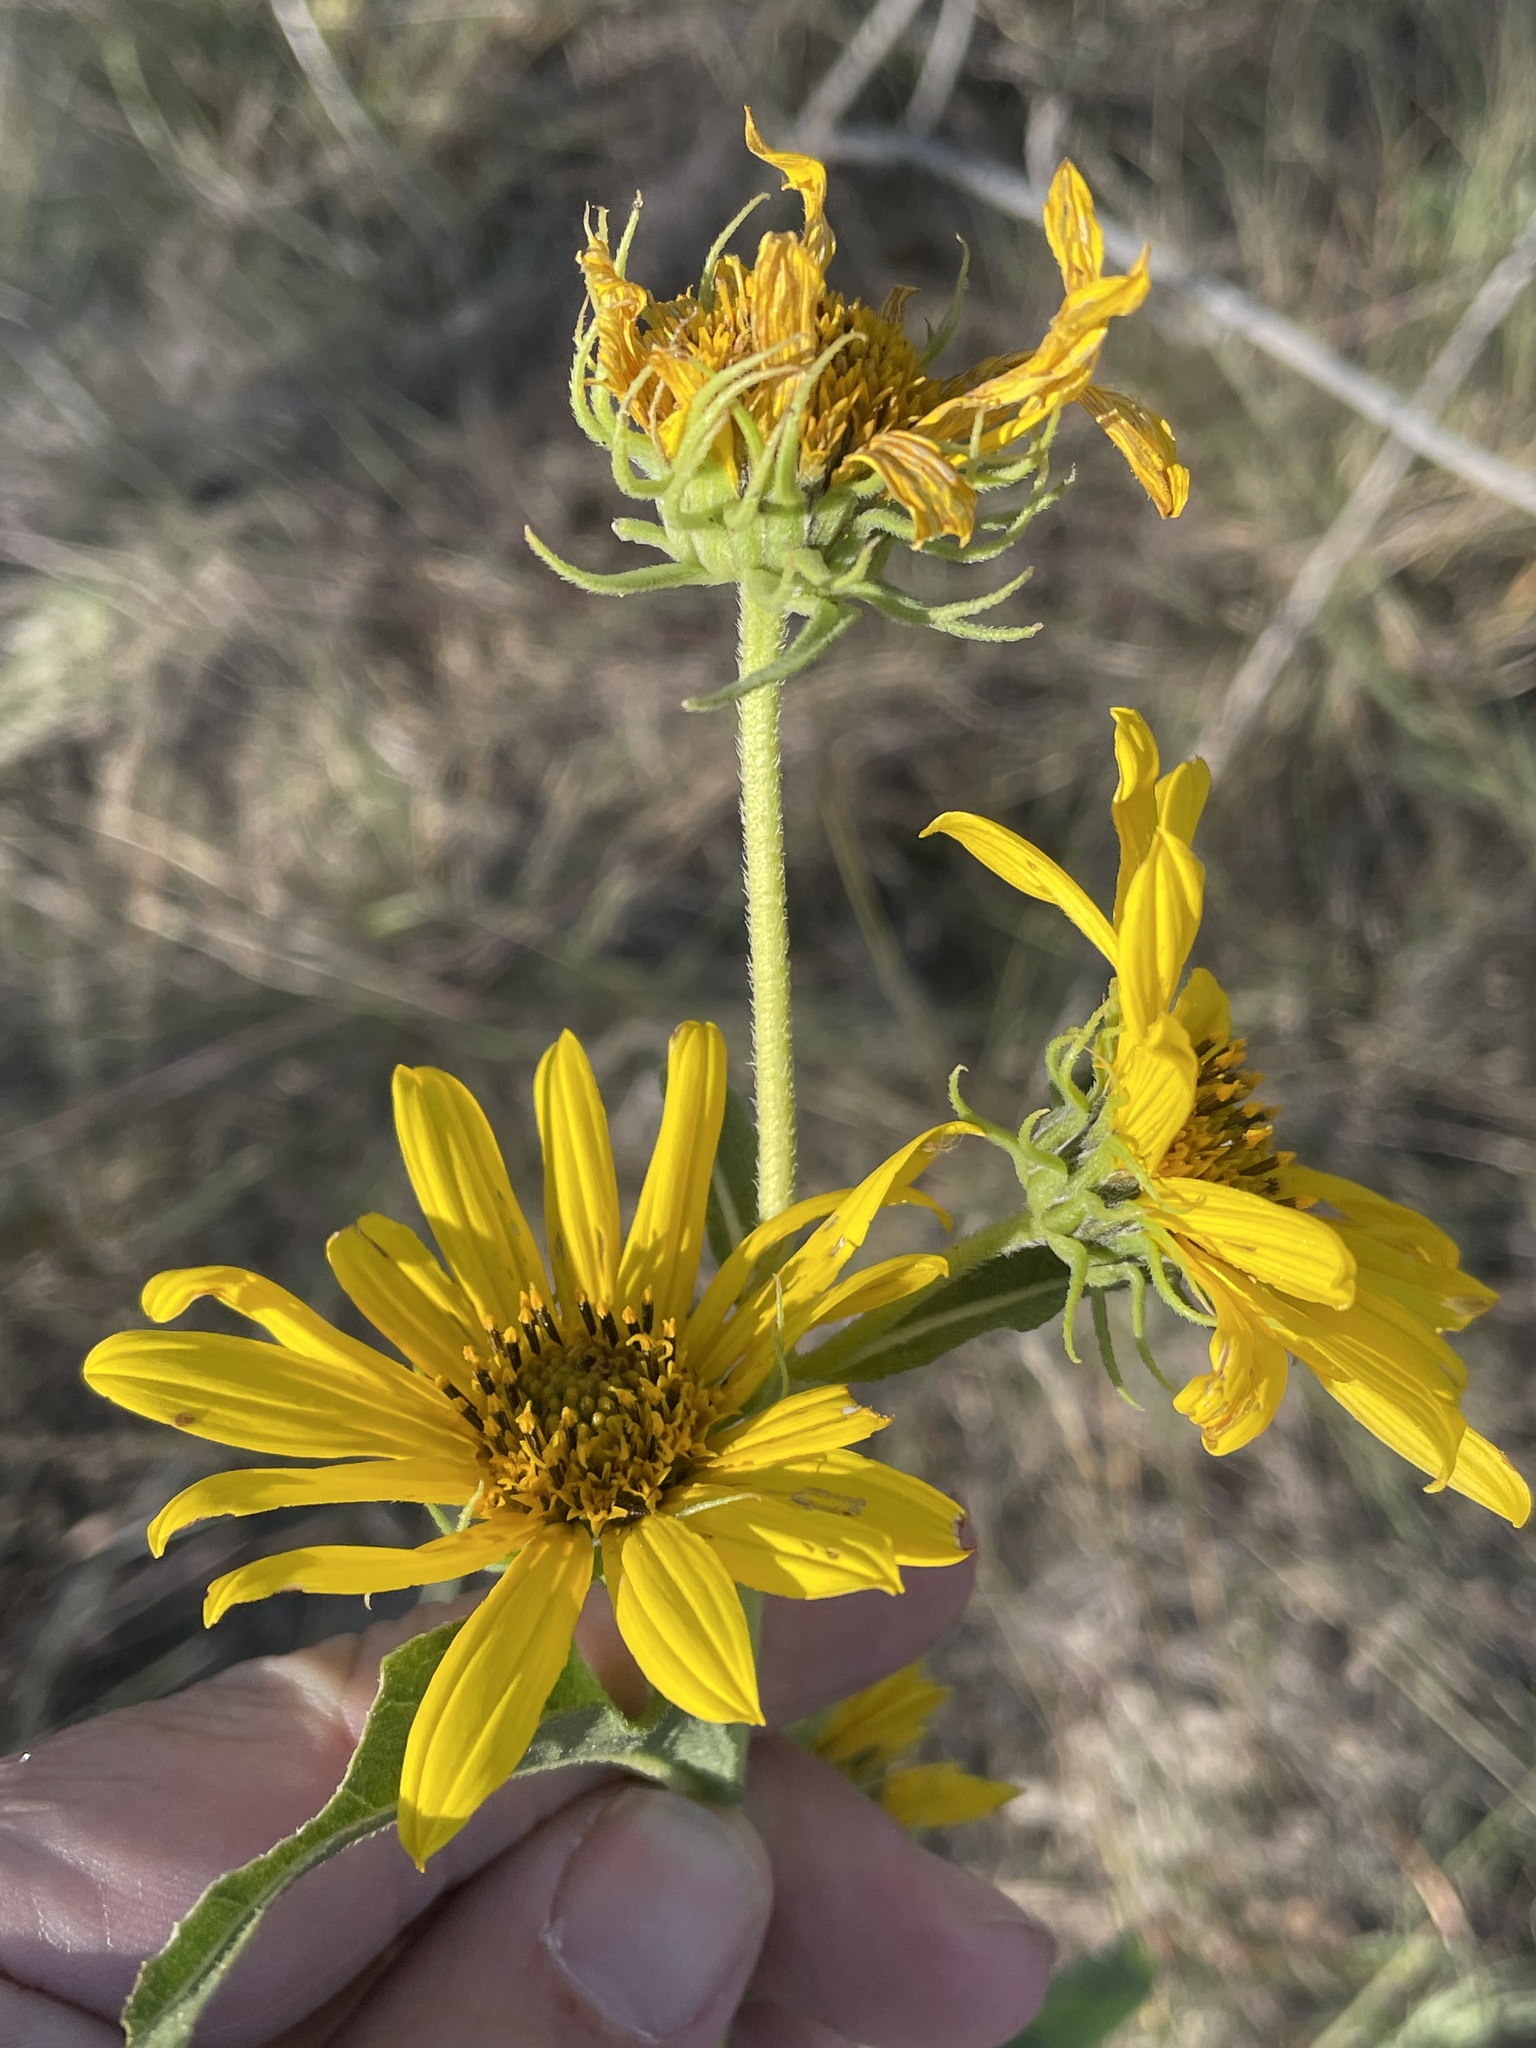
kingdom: Plantae
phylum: Tracheophyta
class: Magnoliopsida
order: Asterales
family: Asteraceae
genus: Helianthus
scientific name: Helianthus maximiliani
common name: Maximilian's sunflower
